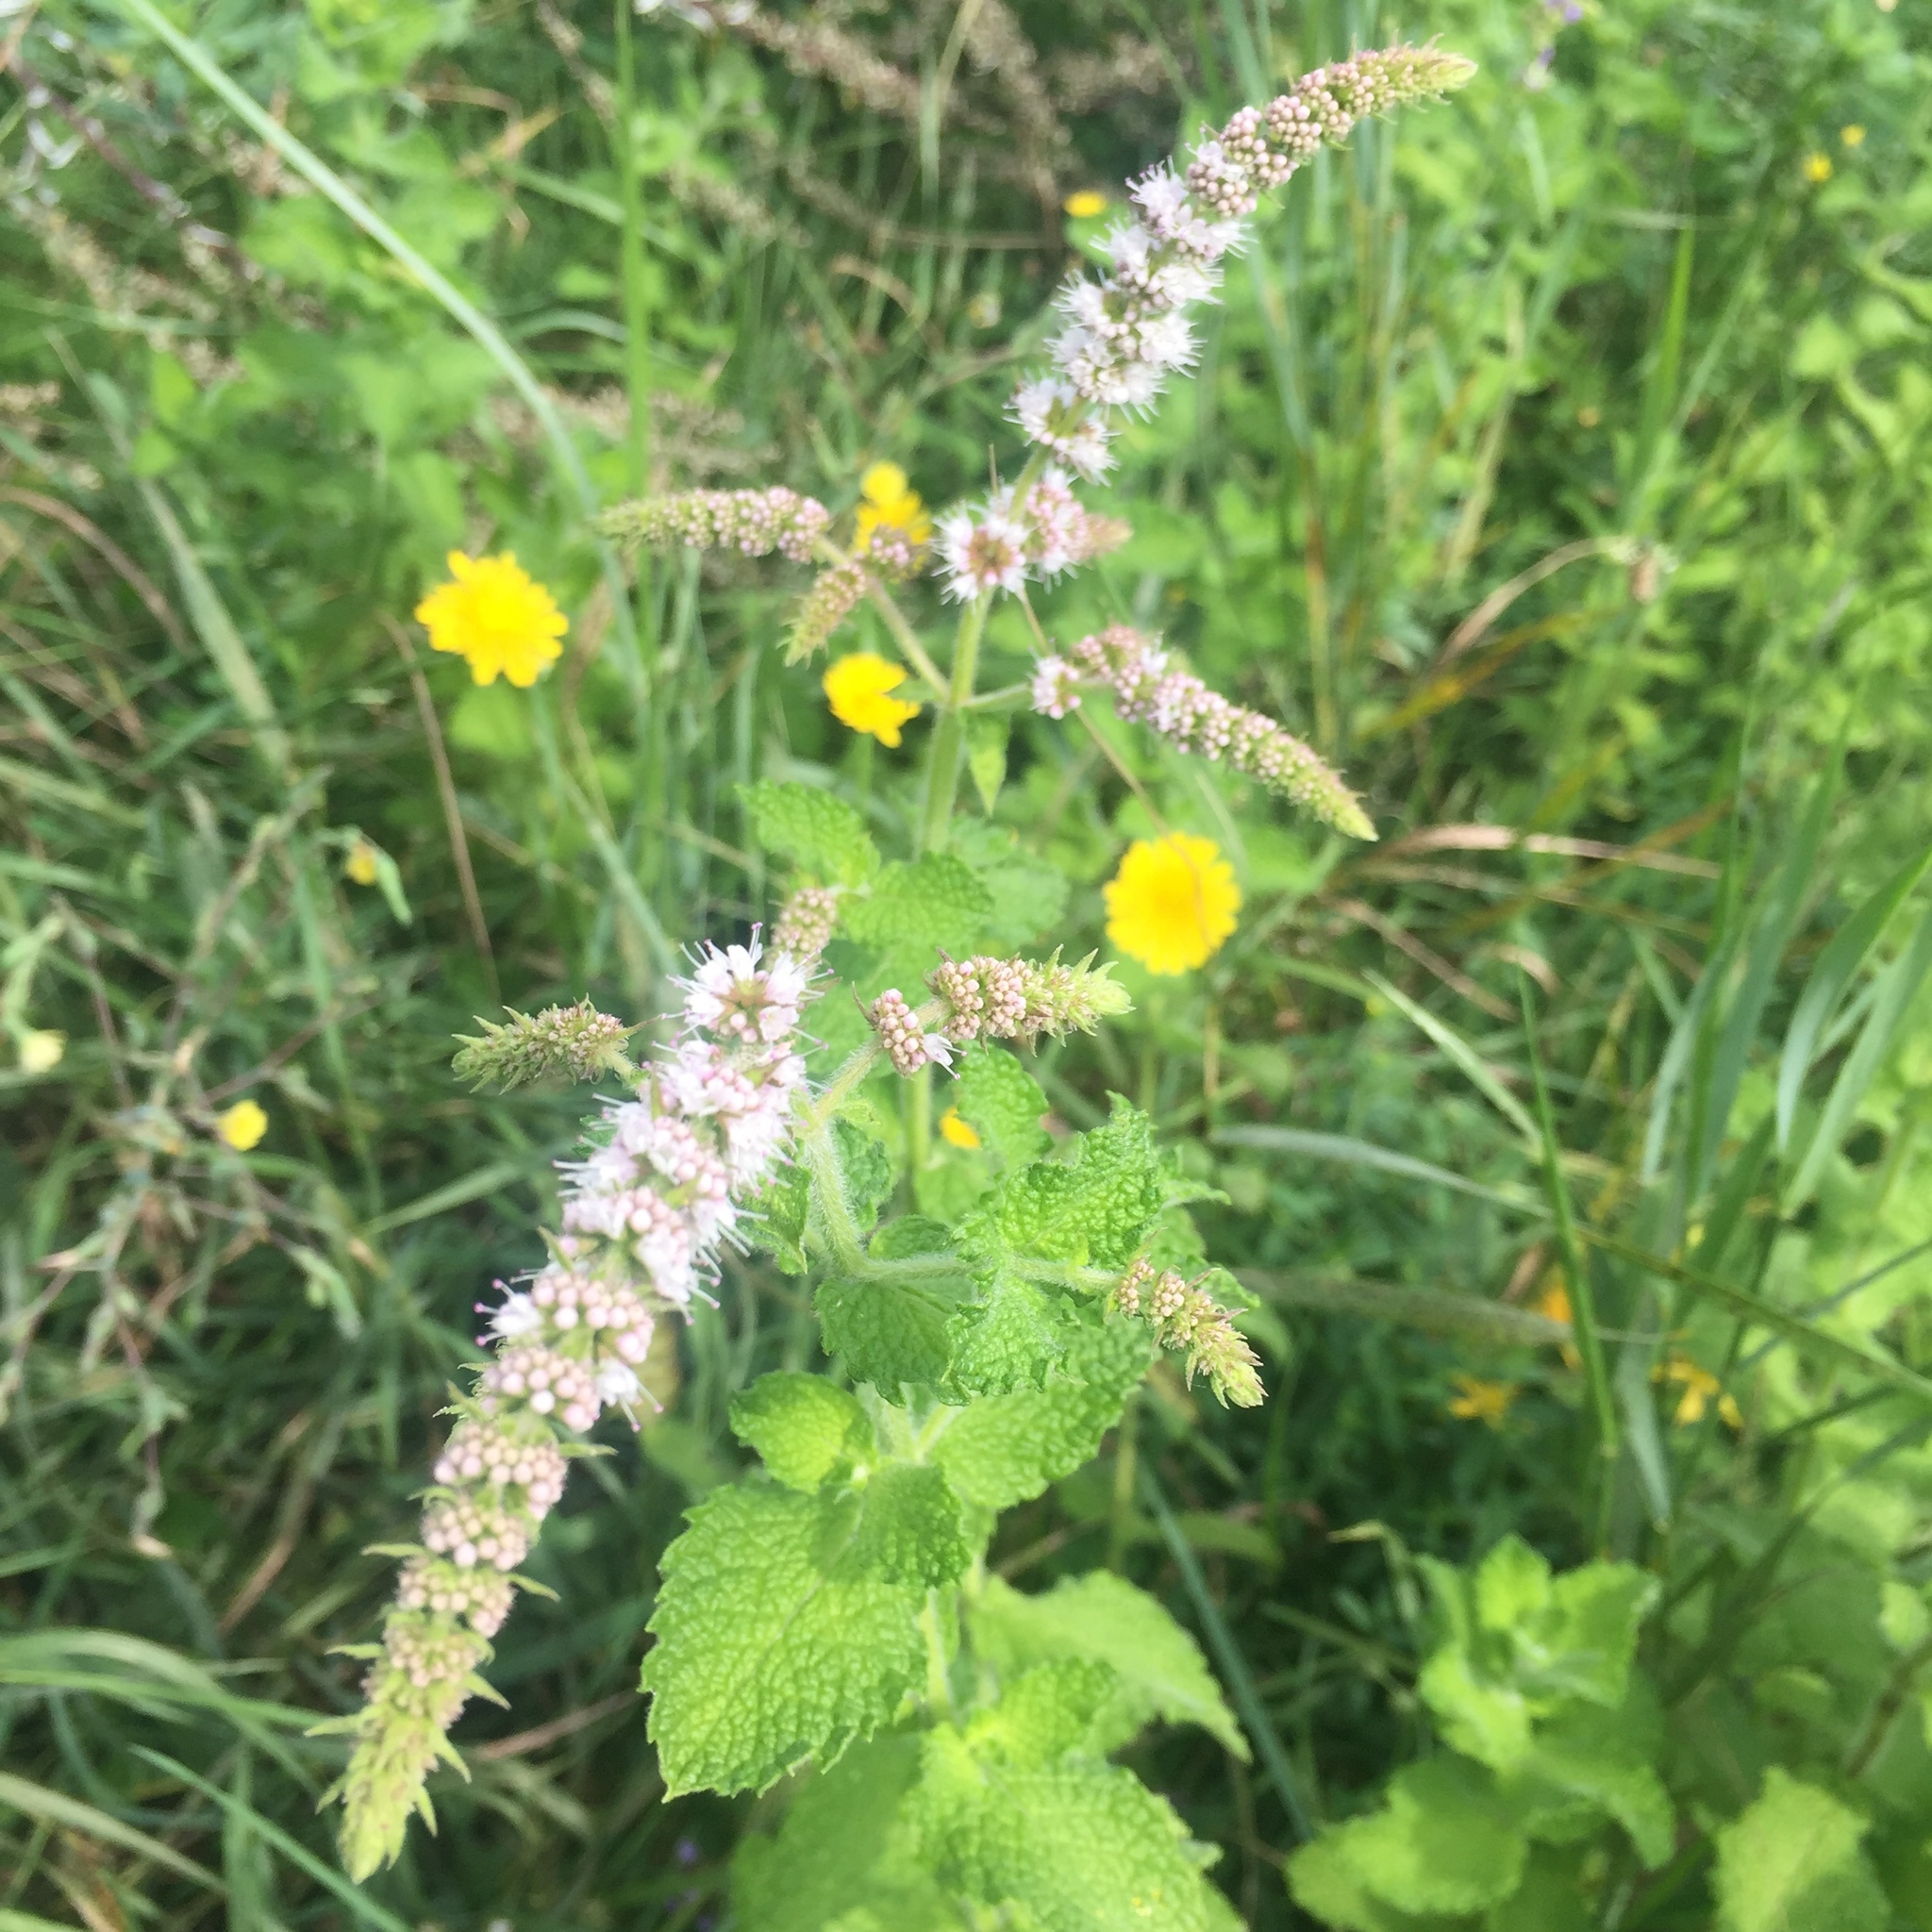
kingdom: Plantae
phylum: Tracheophyta
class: Magnoliopsida
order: Lamiales
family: Lamiaceae
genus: Mentha
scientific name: Mentha suaveolens
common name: Apple mint
